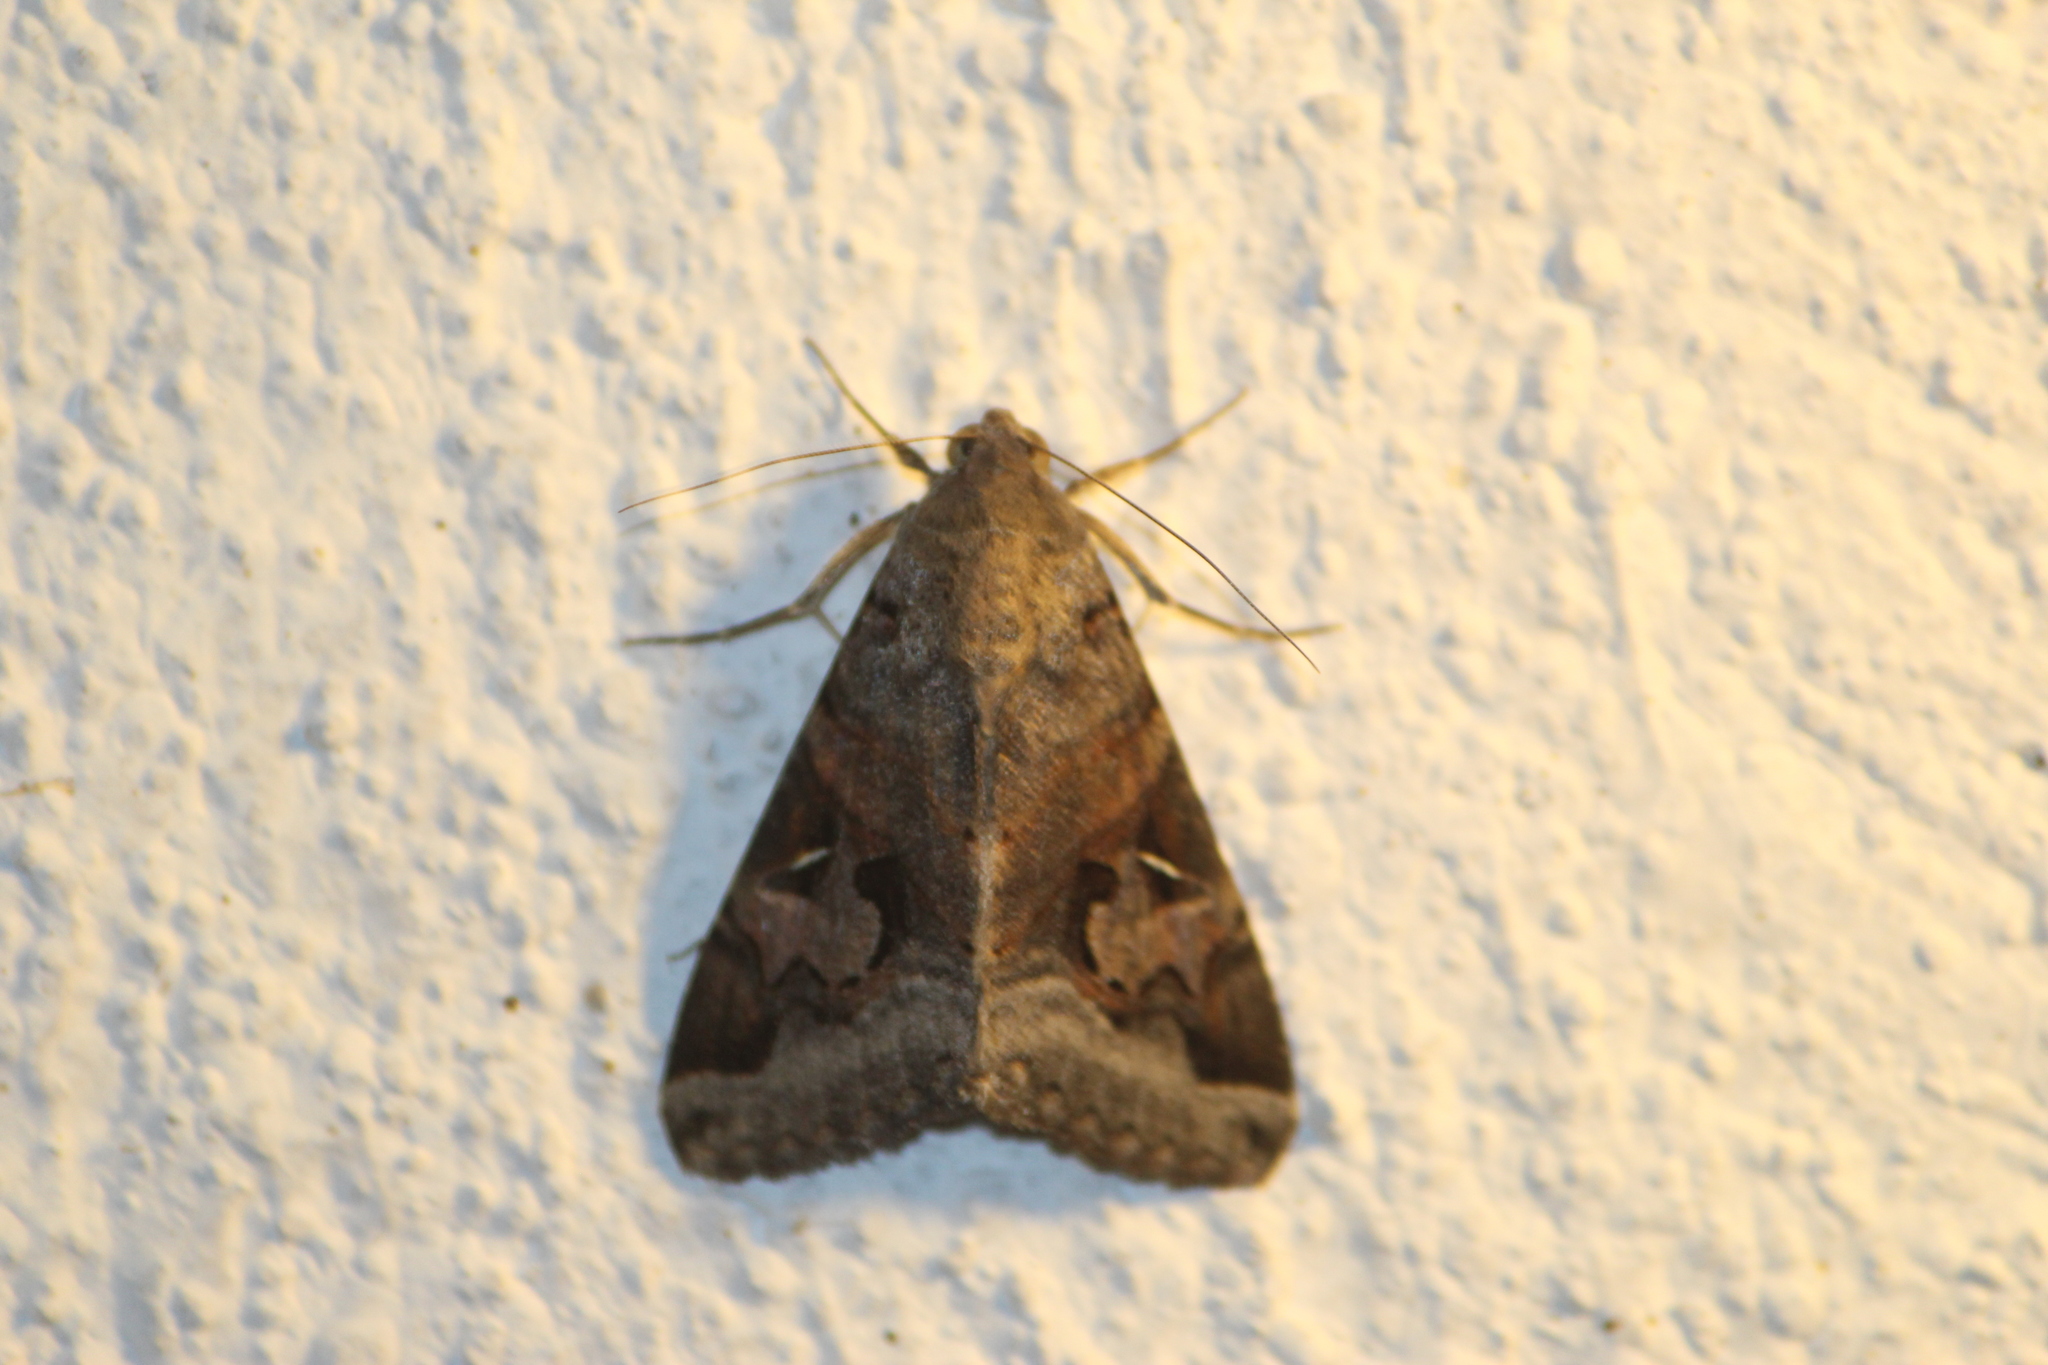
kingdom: Animalia
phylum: Arthropoda
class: Insecta
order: Lepidoptera
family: Erebidae
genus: Melipotis
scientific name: Melipotis indomita
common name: Moth
